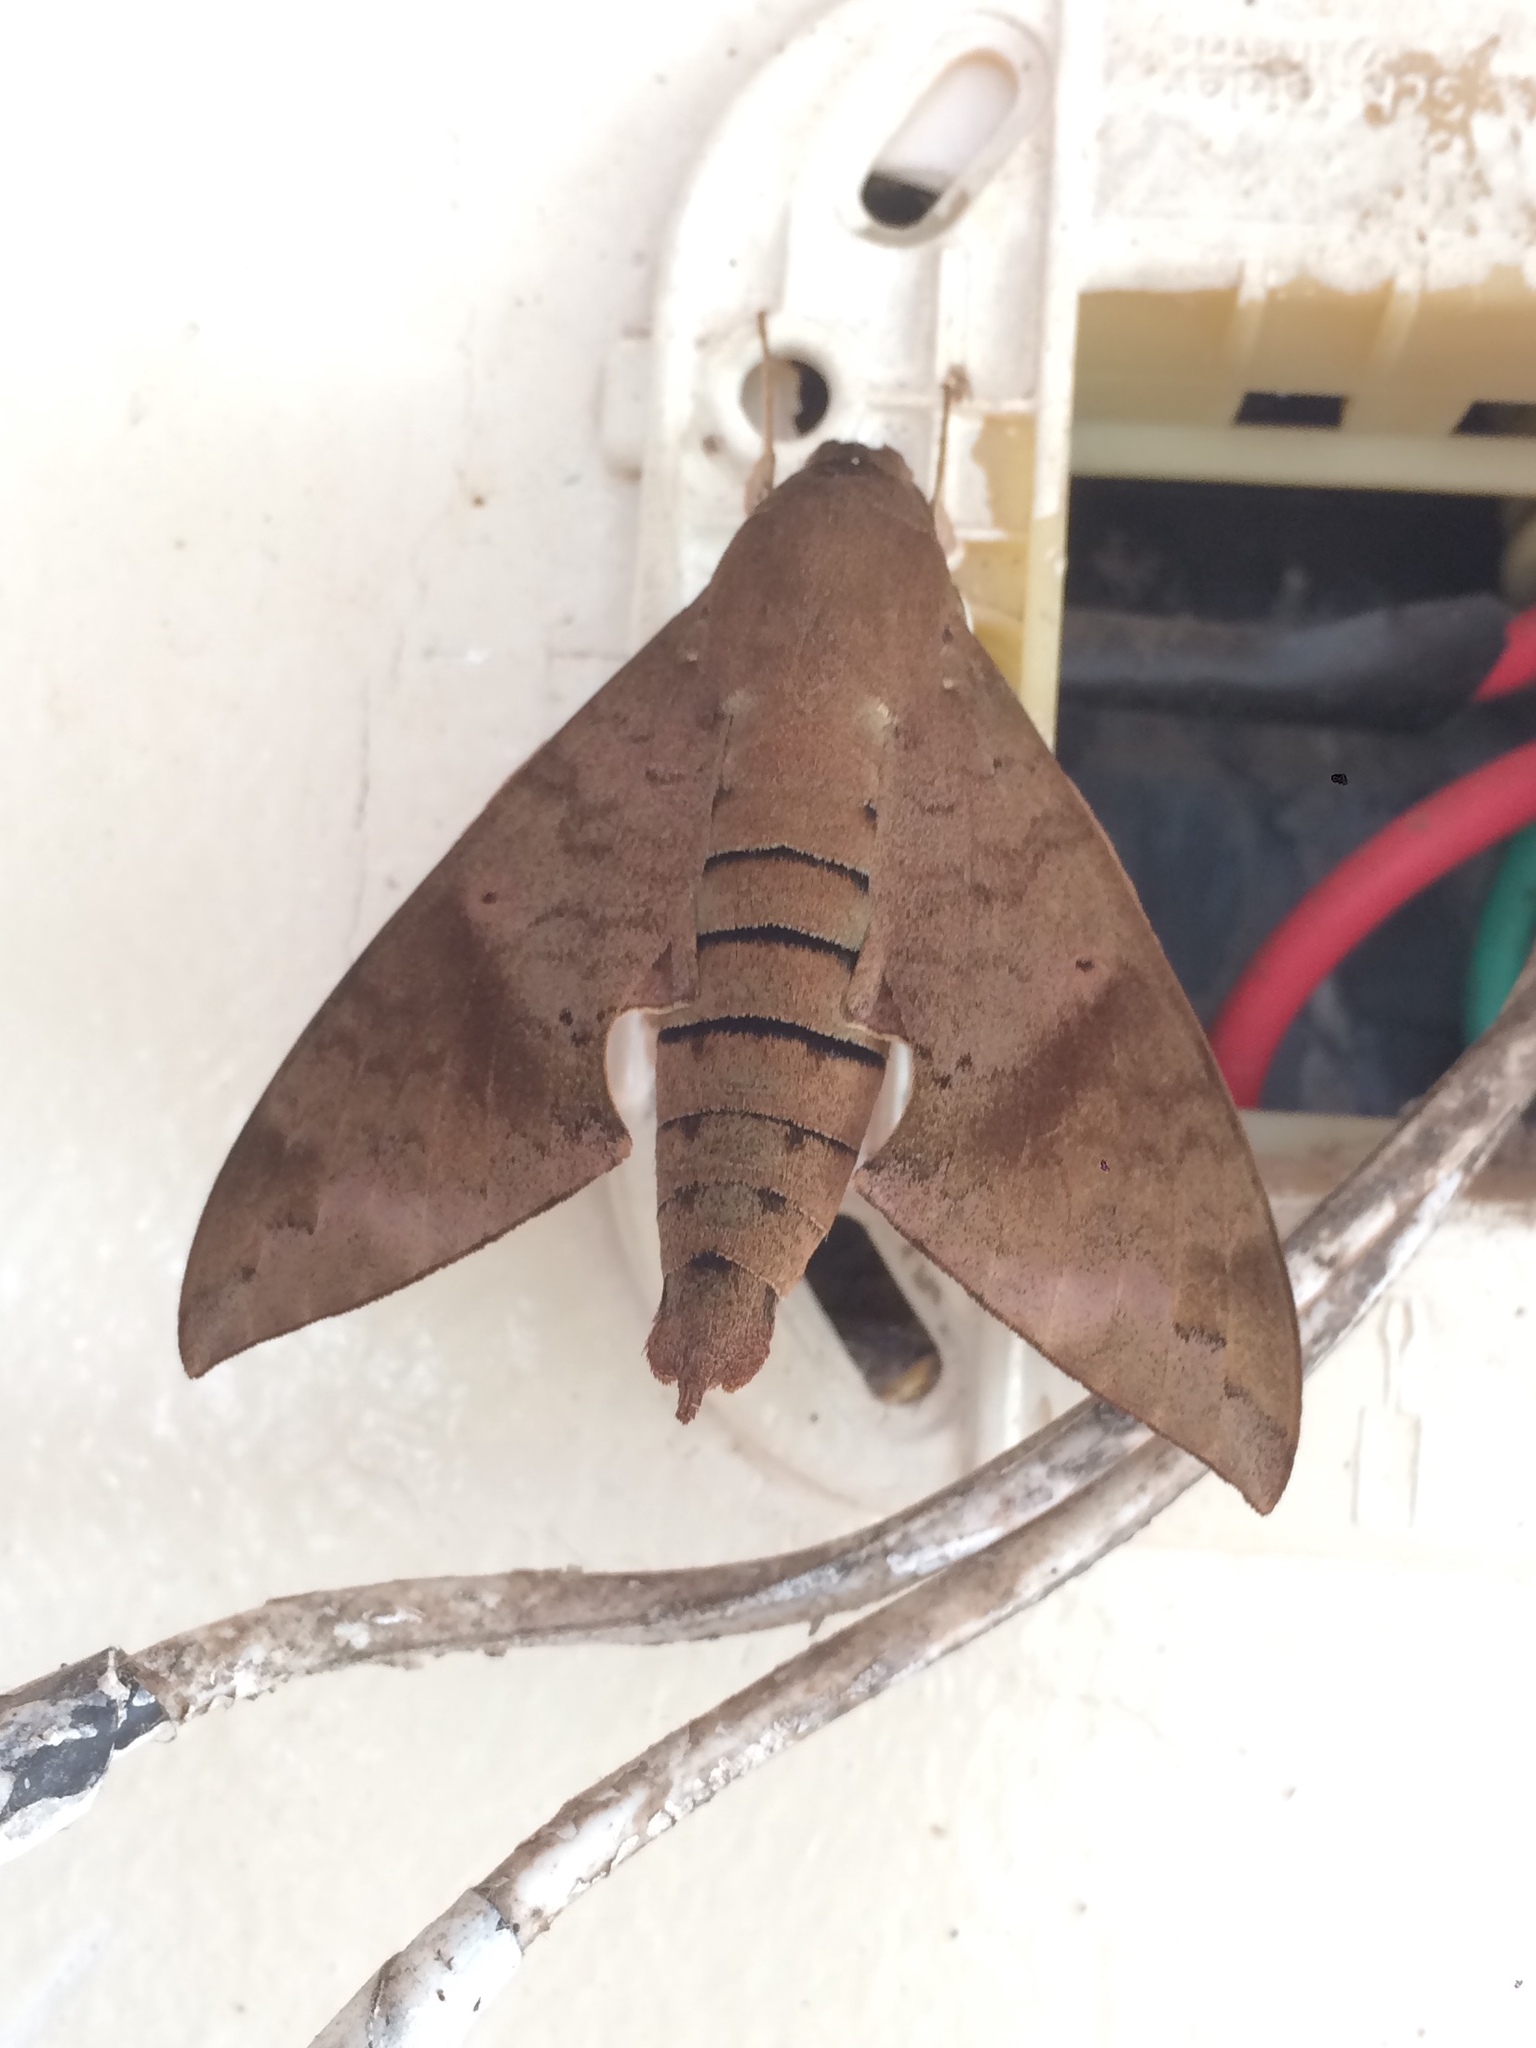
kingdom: Animalia
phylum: Arthropoda
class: Insecta
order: Lepidoptera
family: Sphingidae
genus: Pachylioides
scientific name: Pachylioides resumens
